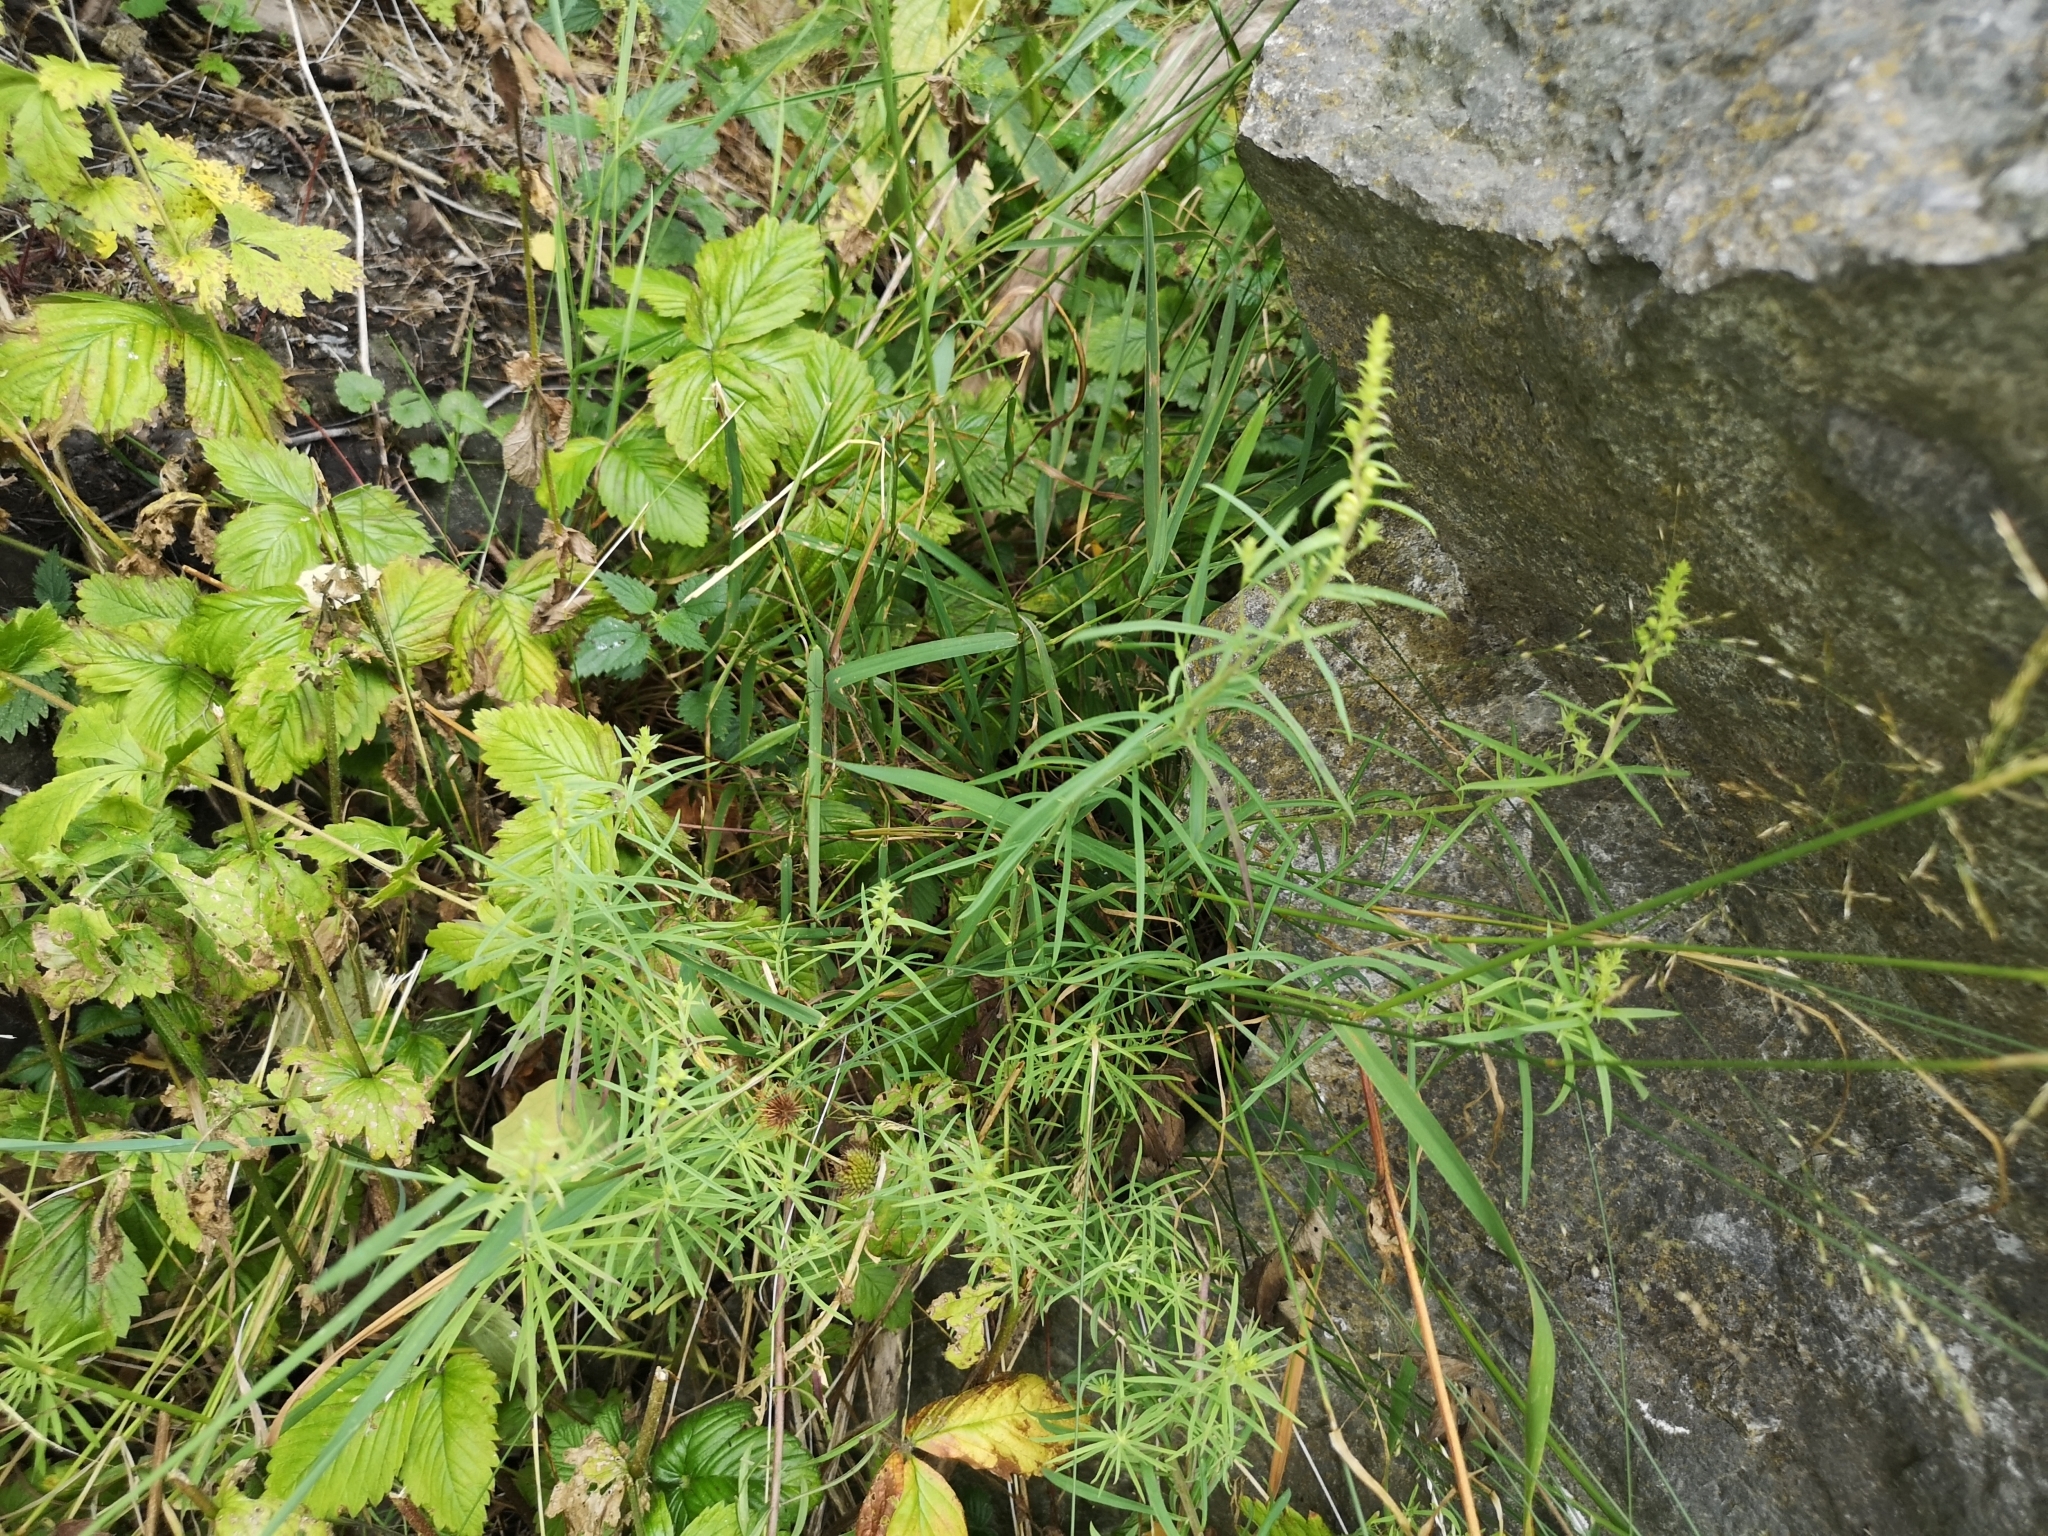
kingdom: Plantae
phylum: Tracheophyta
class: Magnoliopsida
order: Lamiales
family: Plantaginaceae
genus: Linaria
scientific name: Linaria vulgaris
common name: Butter and eggs
